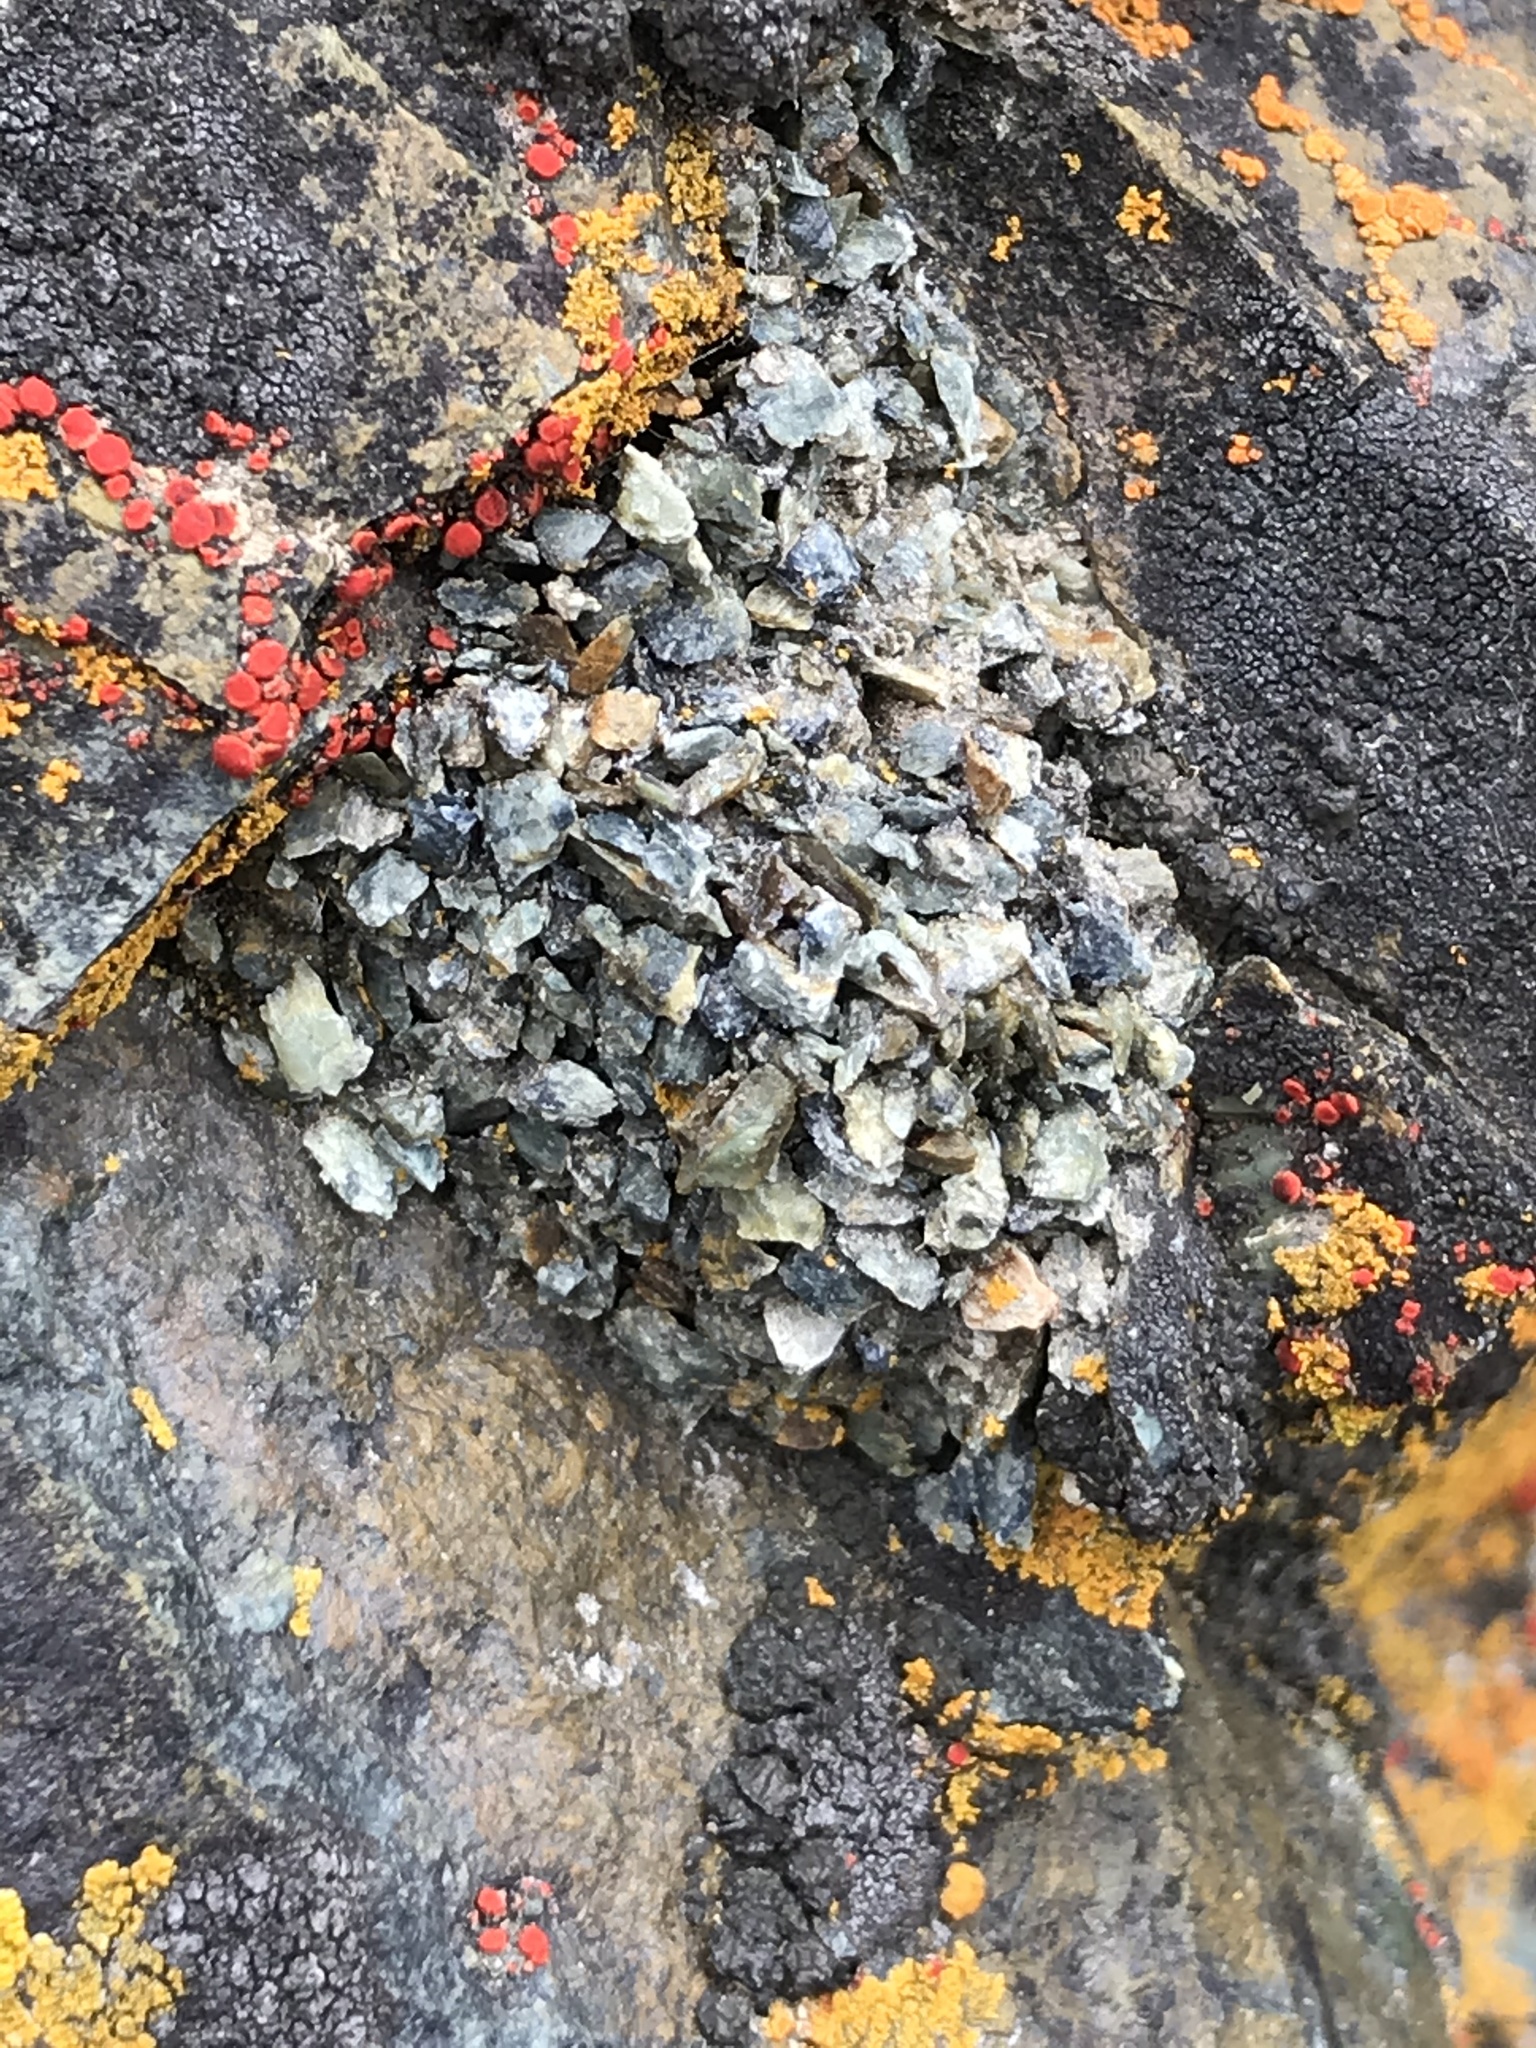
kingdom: Animalia
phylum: Arthropoda
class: Insecta
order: Hymenoptera
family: Megachilidae
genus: Dianthidium
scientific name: Dianthidium
